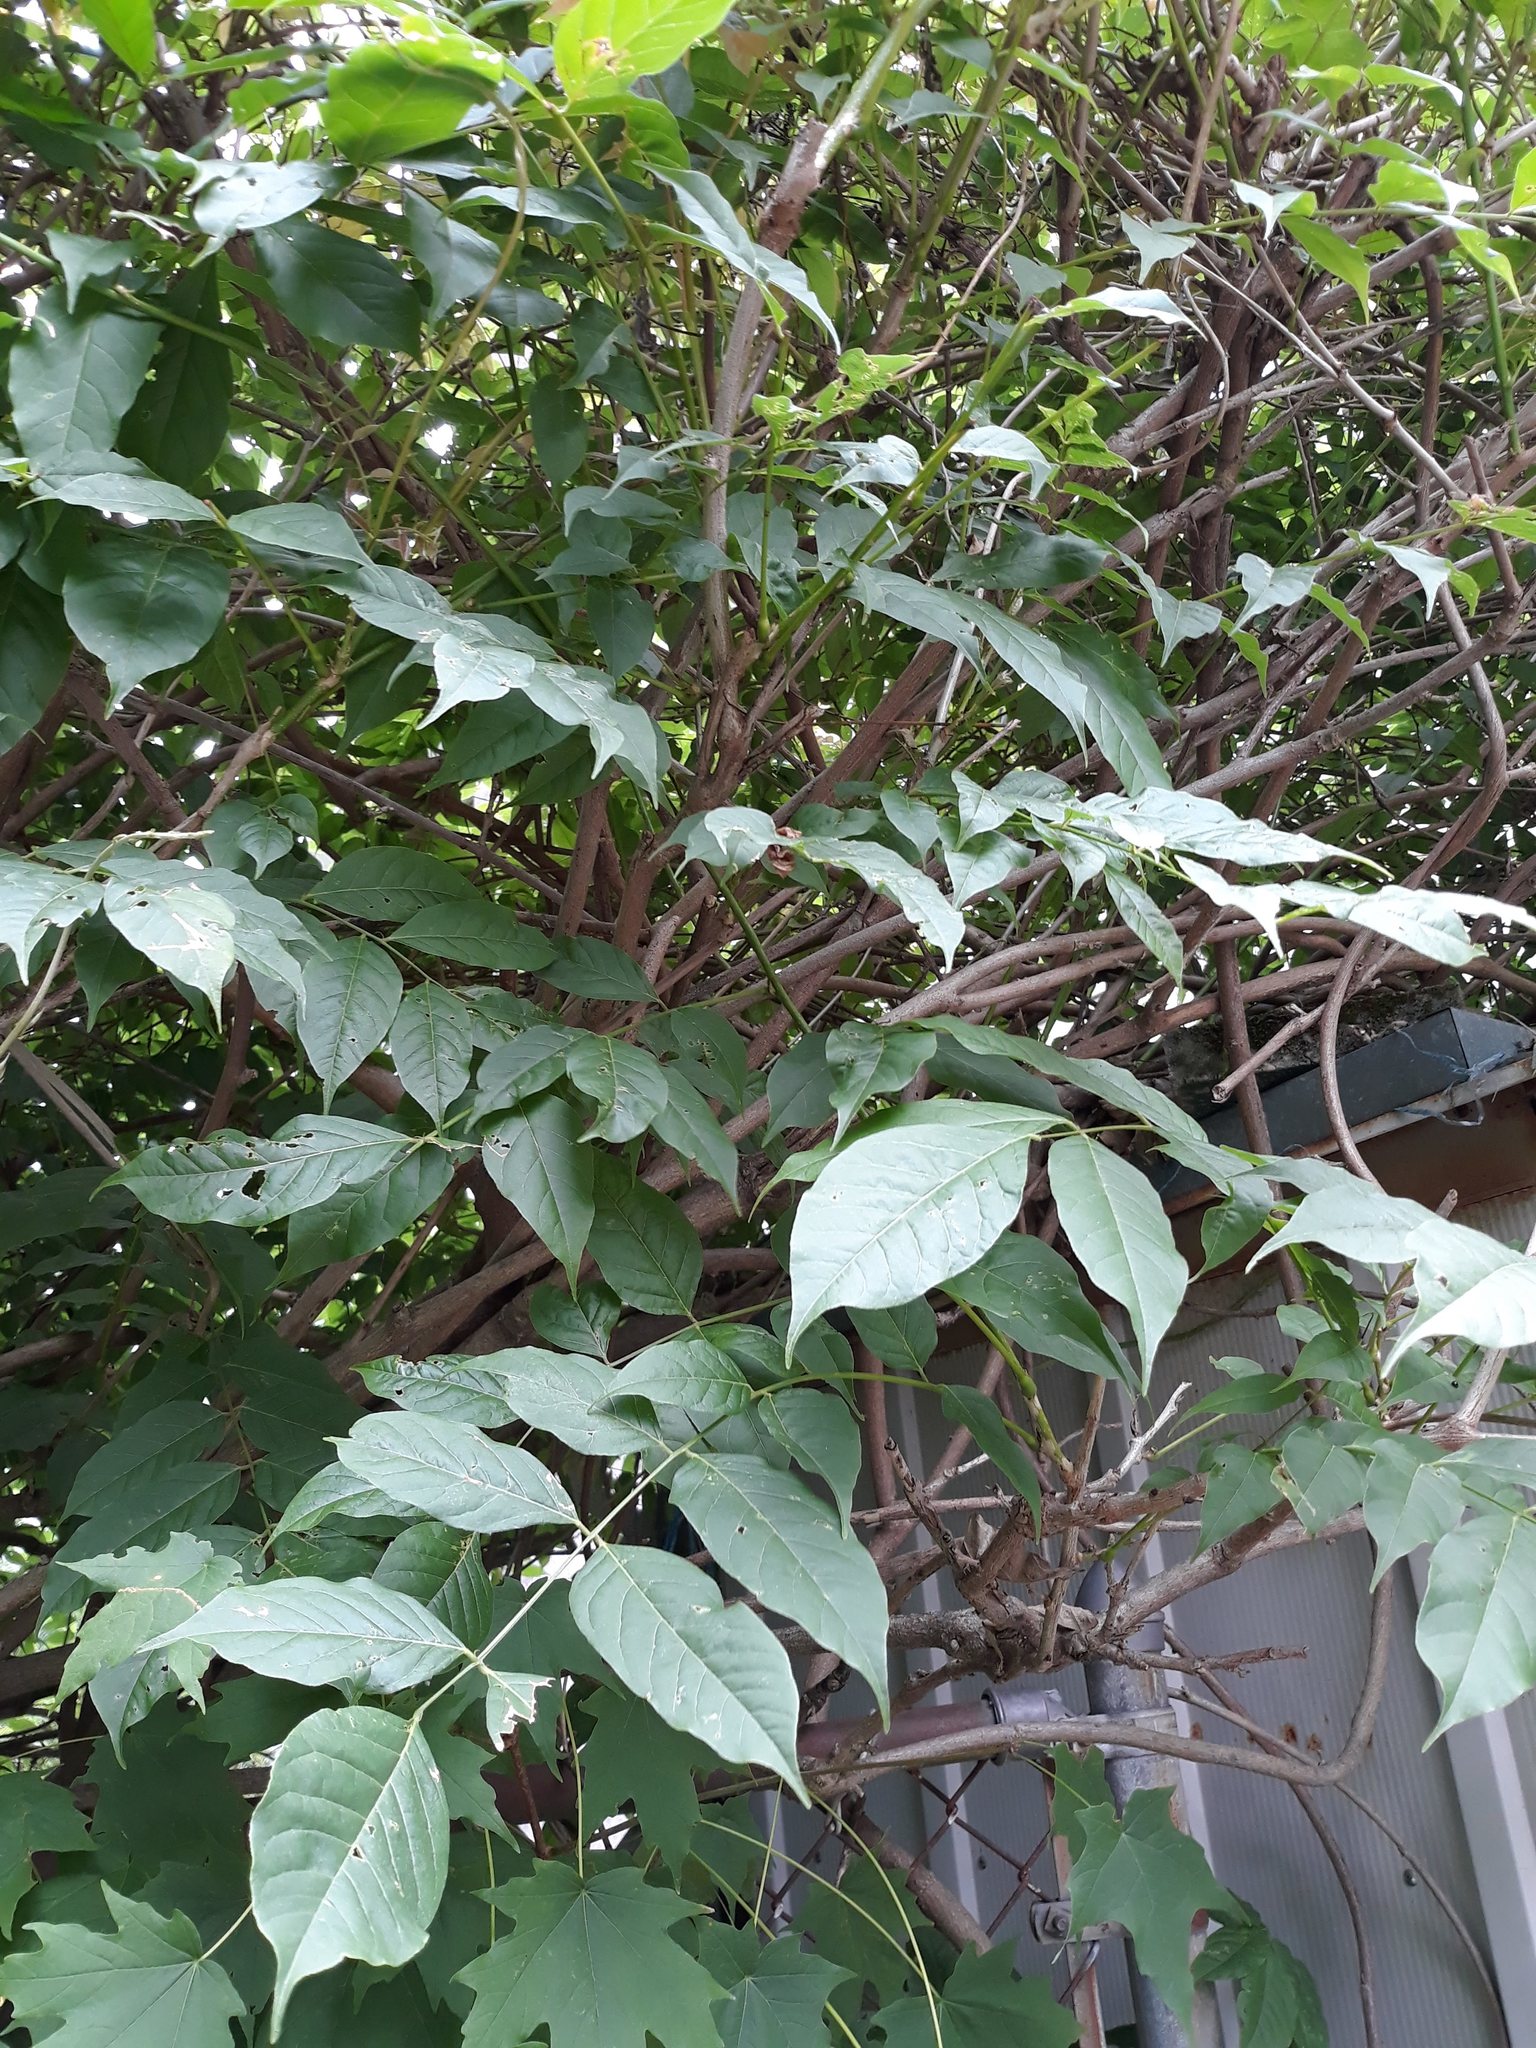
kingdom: Plantae
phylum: Tracheophyta
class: Magnoliopsida
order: Fabales
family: Fabaceae
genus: Wisteria
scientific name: Wisteria floribunda
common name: Japanese wisteria
